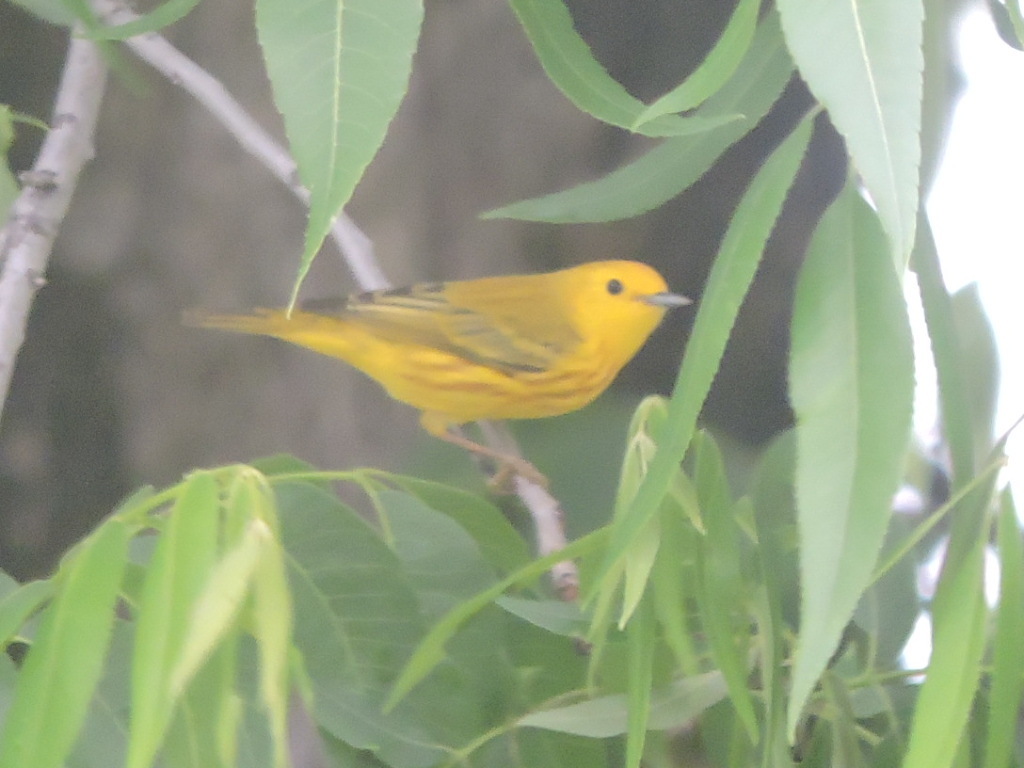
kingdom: Animalia
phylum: Chordata
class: Aves
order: Passeriformes
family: Parulidae
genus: Setophaga
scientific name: Setophaga petechia
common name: Yellow warbler
